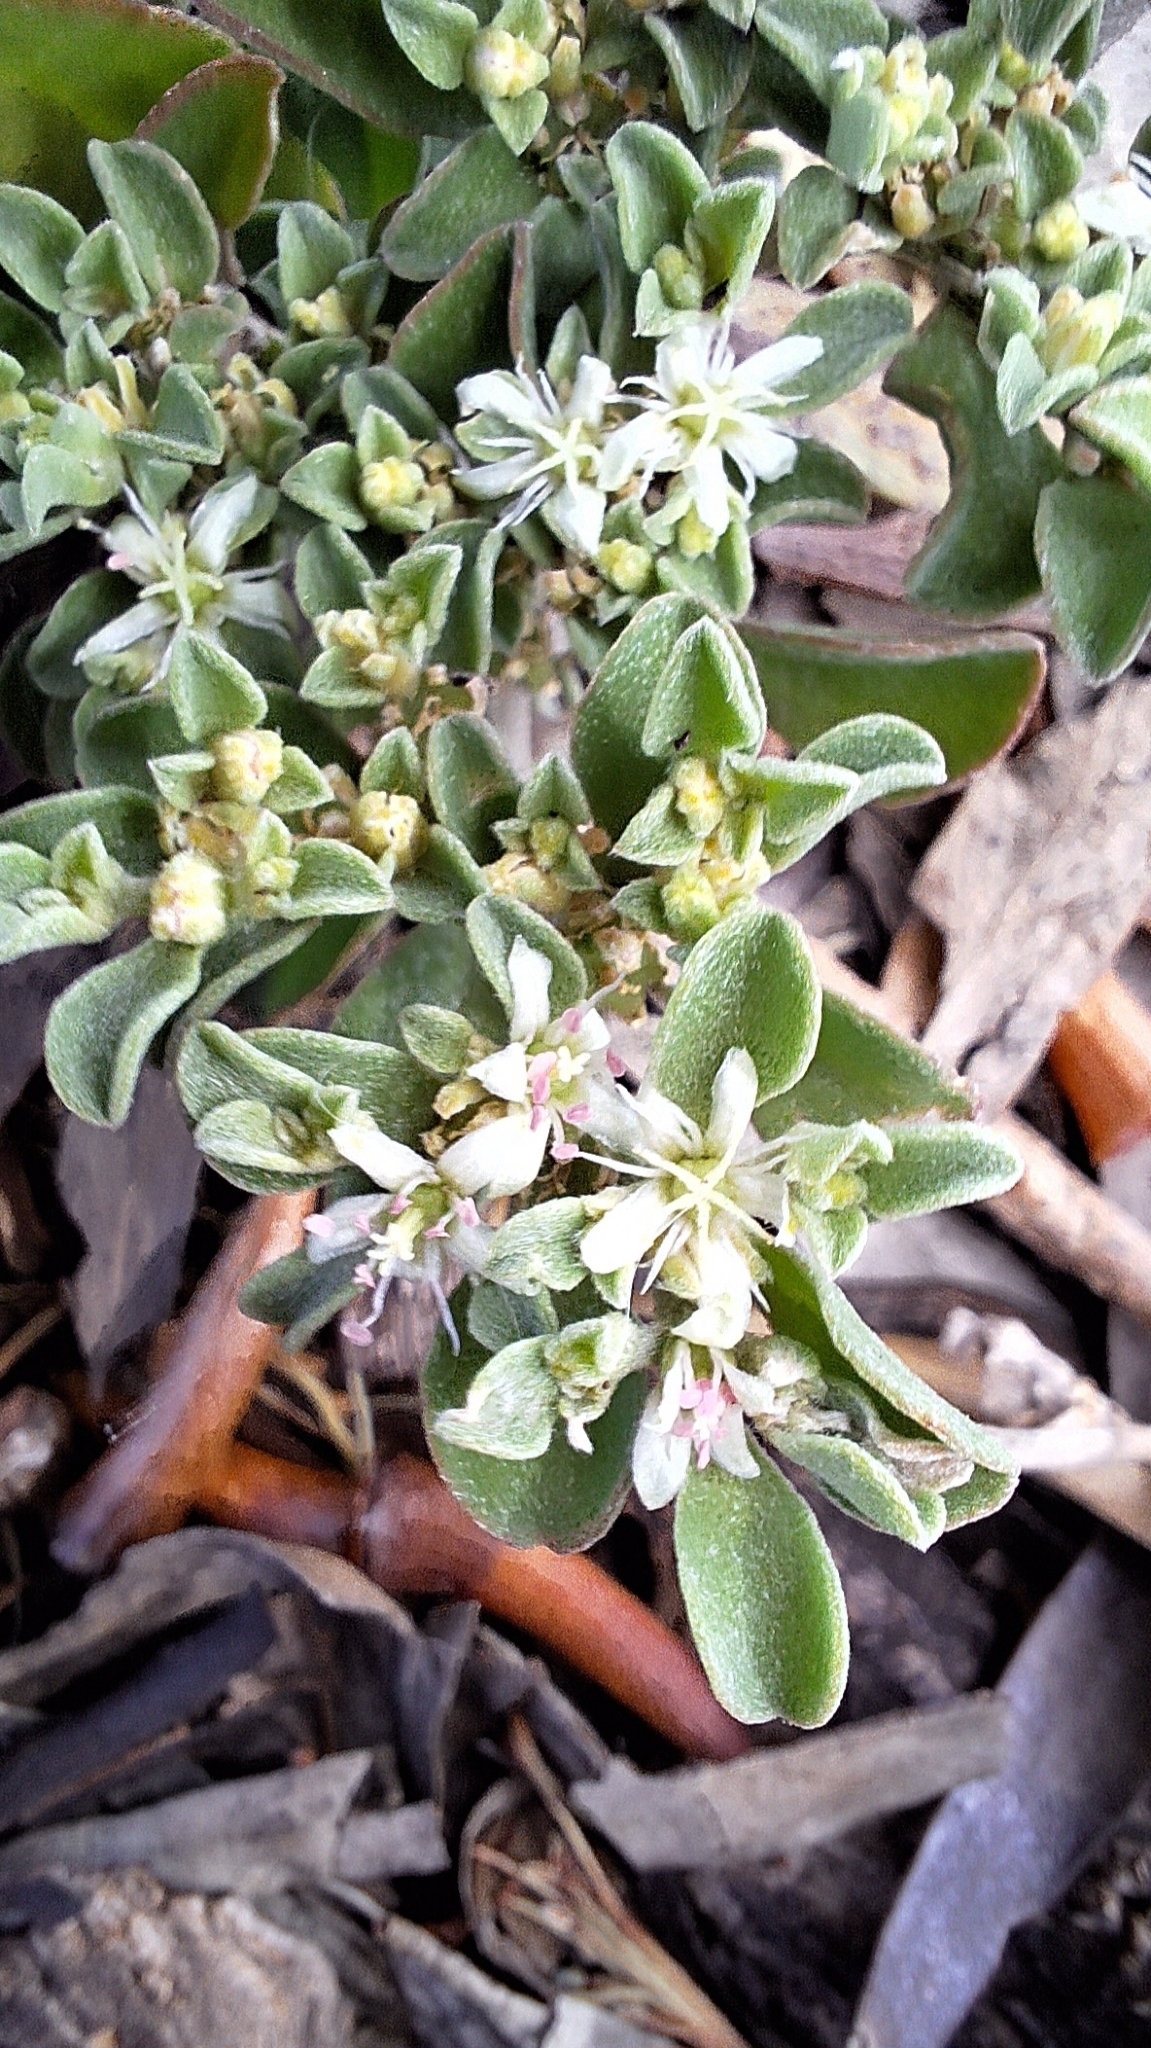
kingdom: Plantae
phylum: Tracheophyta
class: Magnoliopsida
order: Caryophyllales
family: Aizoaceae
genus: Aizoon
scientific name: Aizoon pubescens
